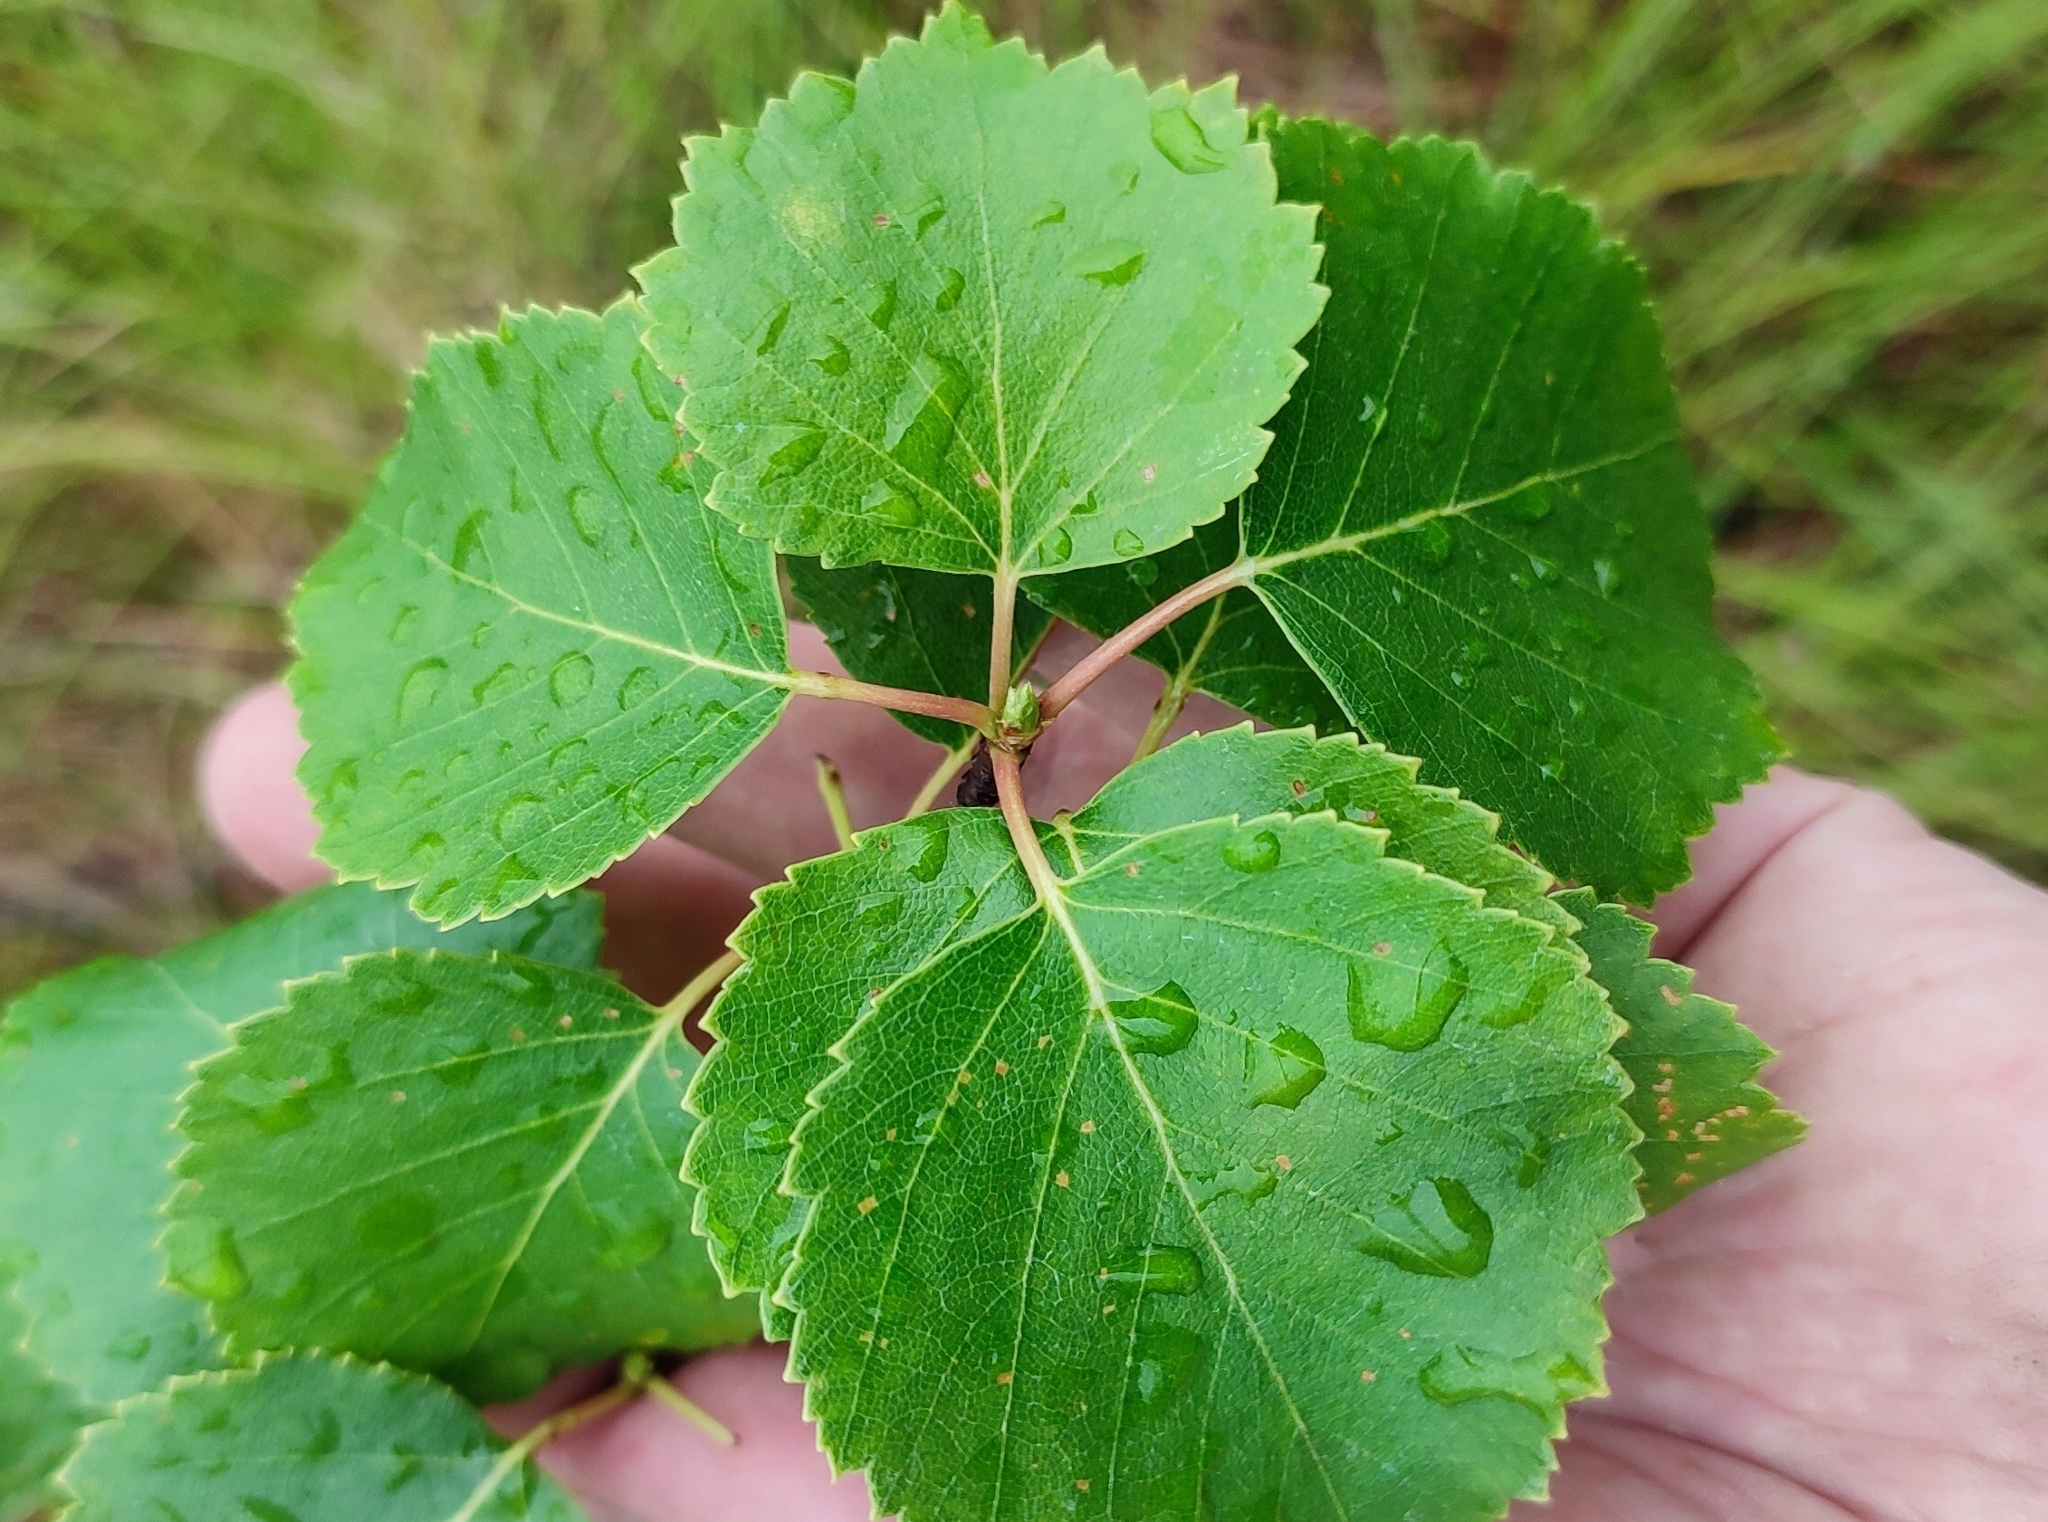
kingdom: Plantae
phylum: Tracheophyta
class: Magnoliopsida
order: Fagales
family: Betulaceae
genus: Betula
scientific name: Betula pubescens
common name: Downy birch
